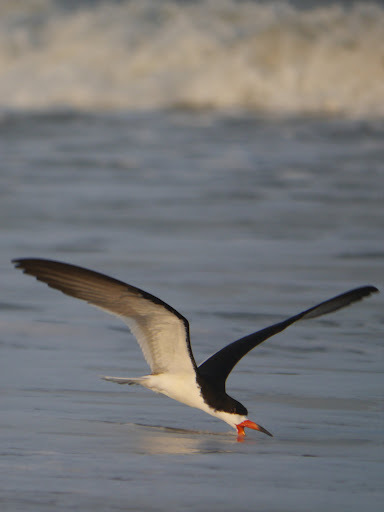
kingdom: Animalia
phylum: Chordata
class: Aves
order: Charadriiformes
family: Laridae
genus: Rynchops
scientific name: Rynchops niger
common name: Black skimmer
